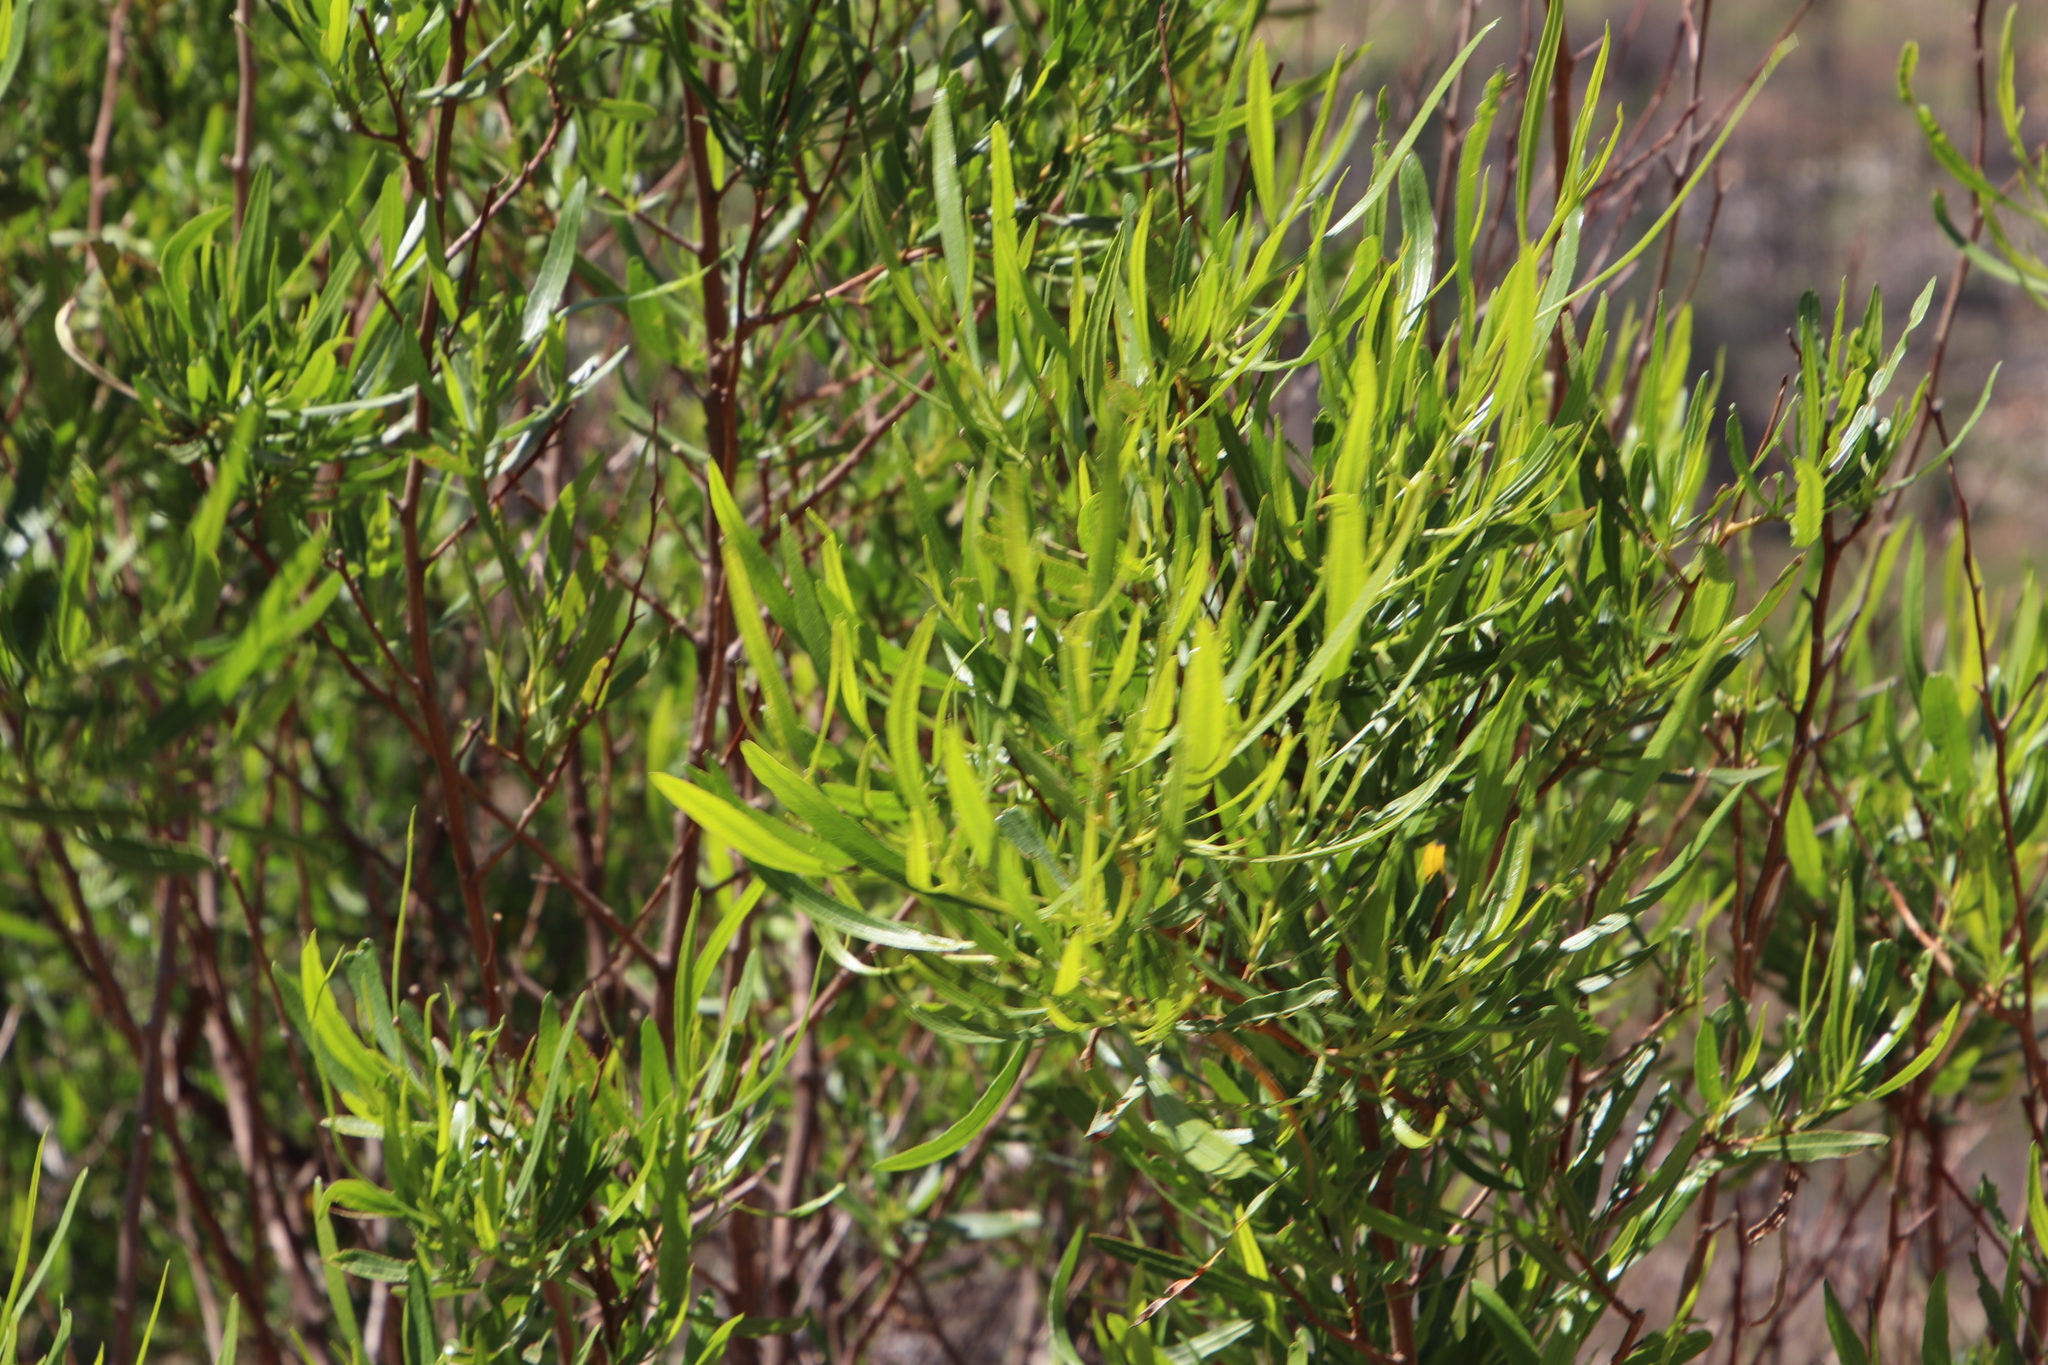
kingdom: Plantae
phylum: Tracheophyta
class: Magnoliopsida
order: Sapindales
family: Sapindaceae
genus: Dodonaea
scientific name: Dodonaea viscosa
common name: Hopbush
